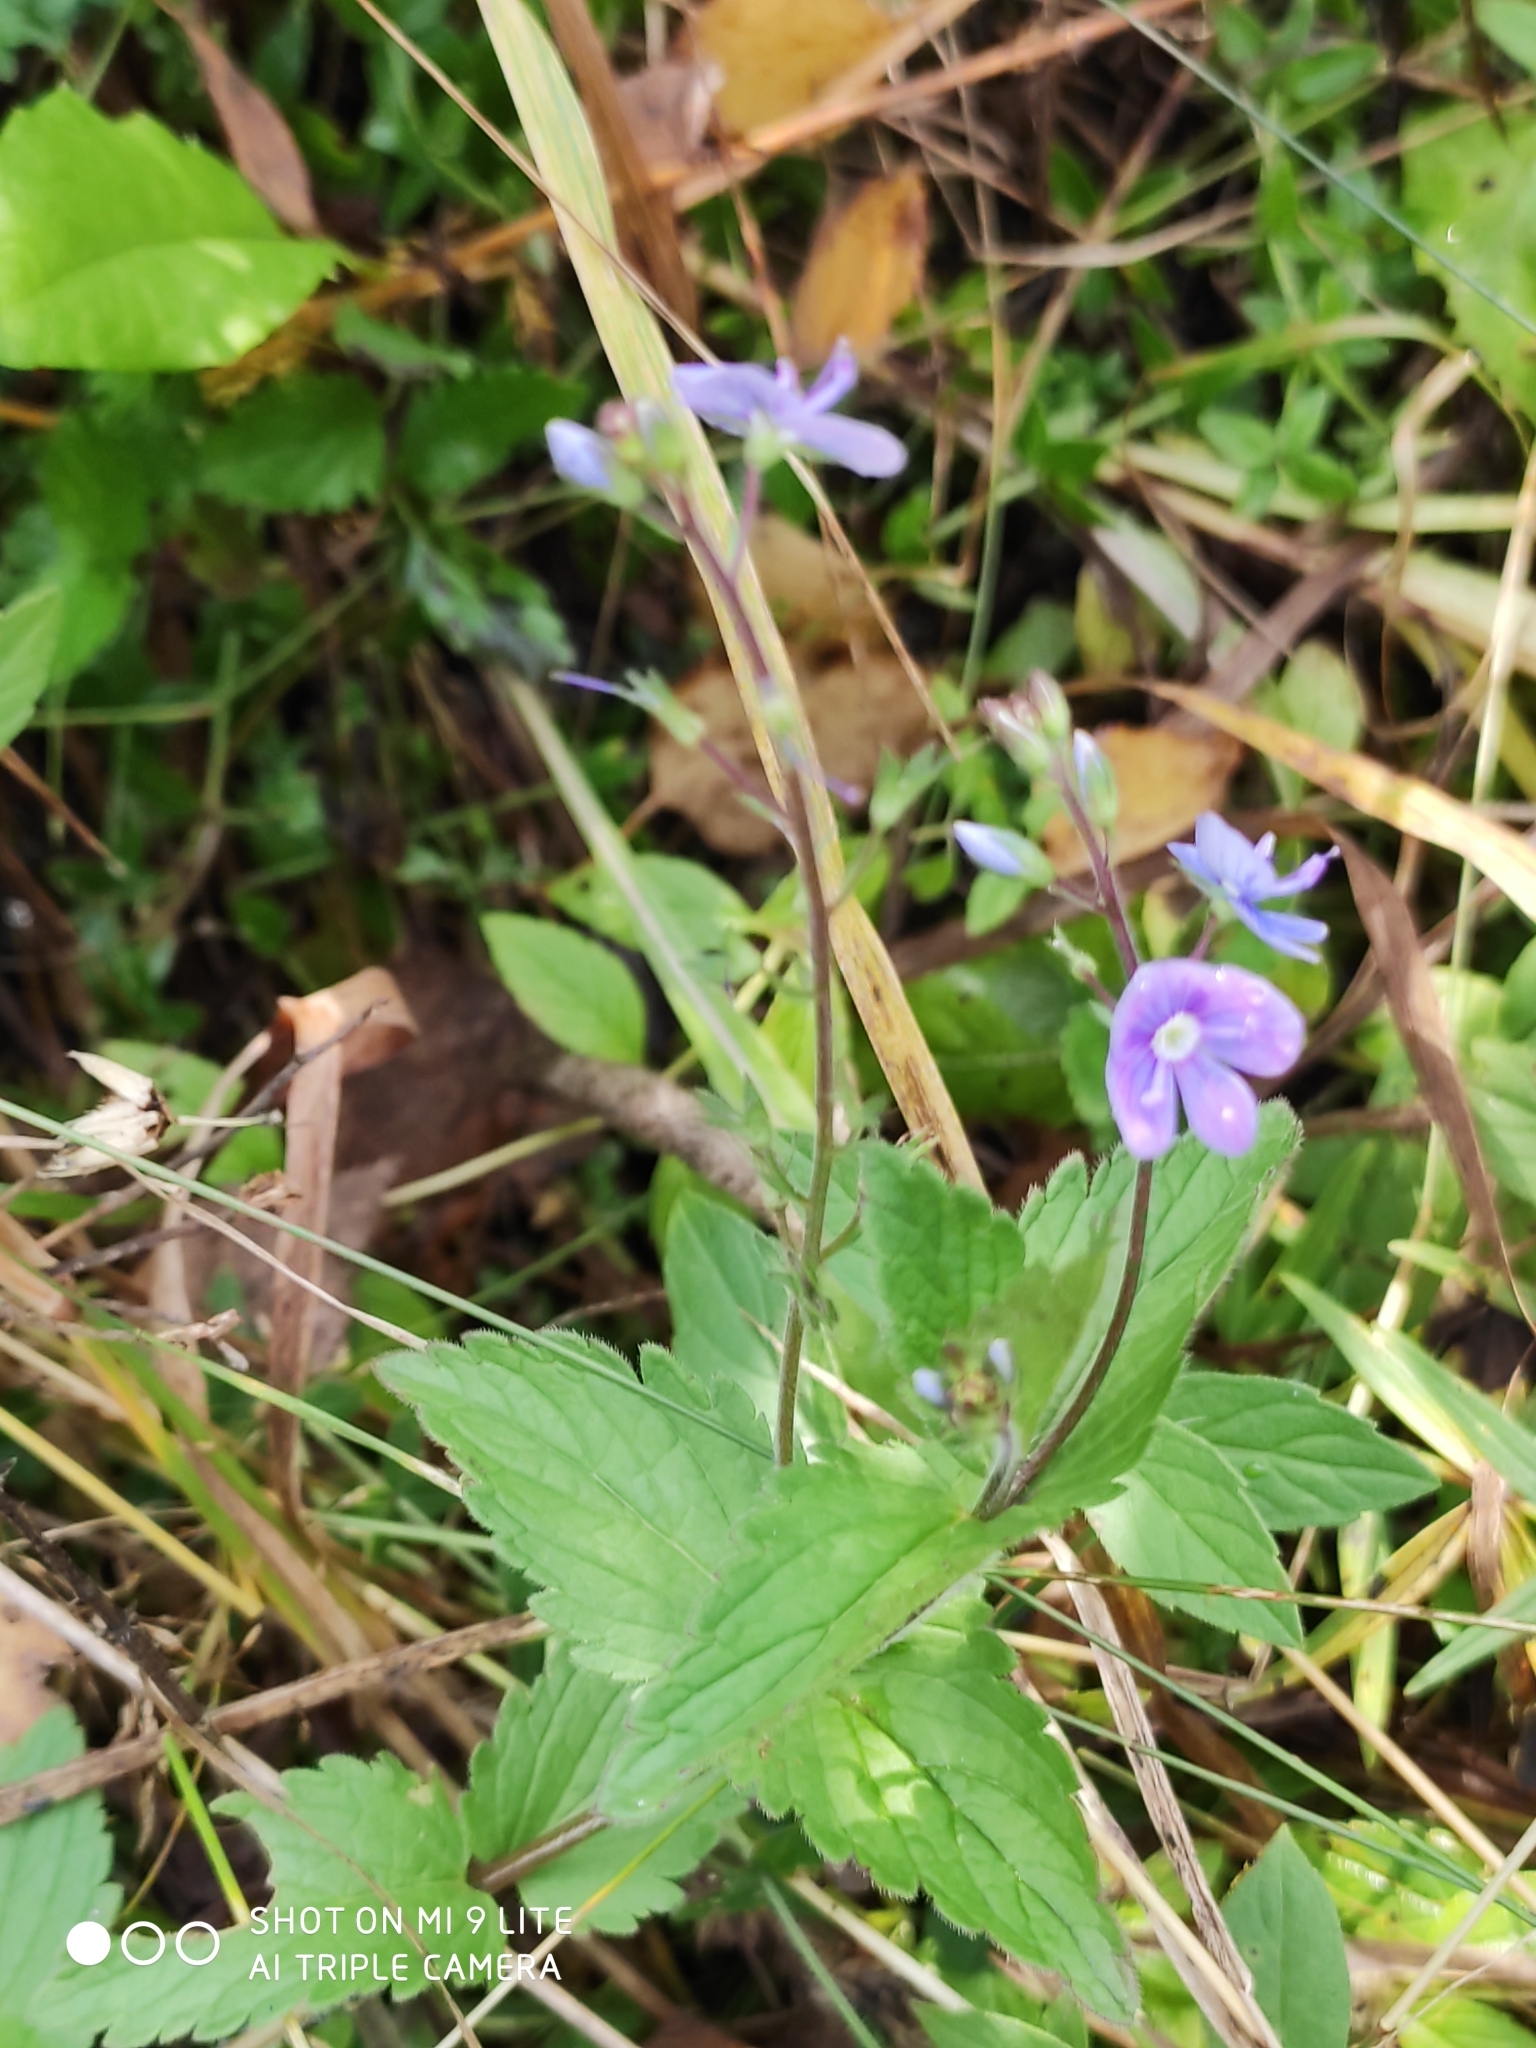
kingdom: Plantae
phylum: Tracheophyta
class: Magnoliopsida
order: Lamiales
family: Plantaginaceae
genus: Veronica
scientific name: Veronica chamaedrys
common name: Germander speedwell
